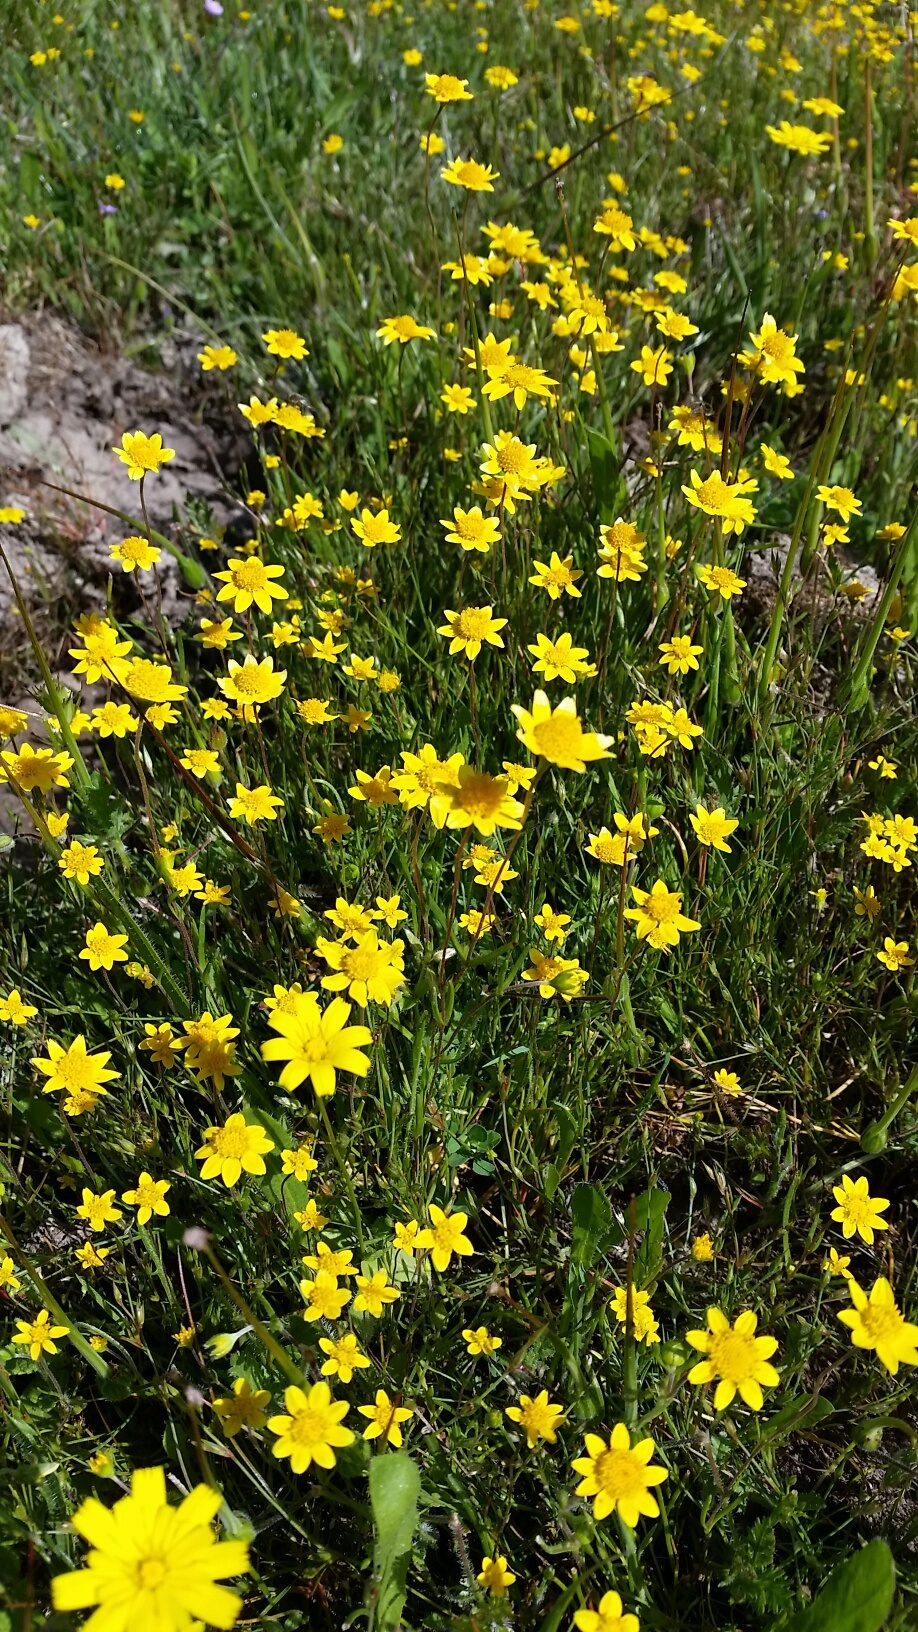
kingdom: Plantae
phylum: Tracheophyta
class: Magnoliopsida
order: Asterales
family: Asteraceae
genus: Lasthenia
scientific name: Lasthenia californica
